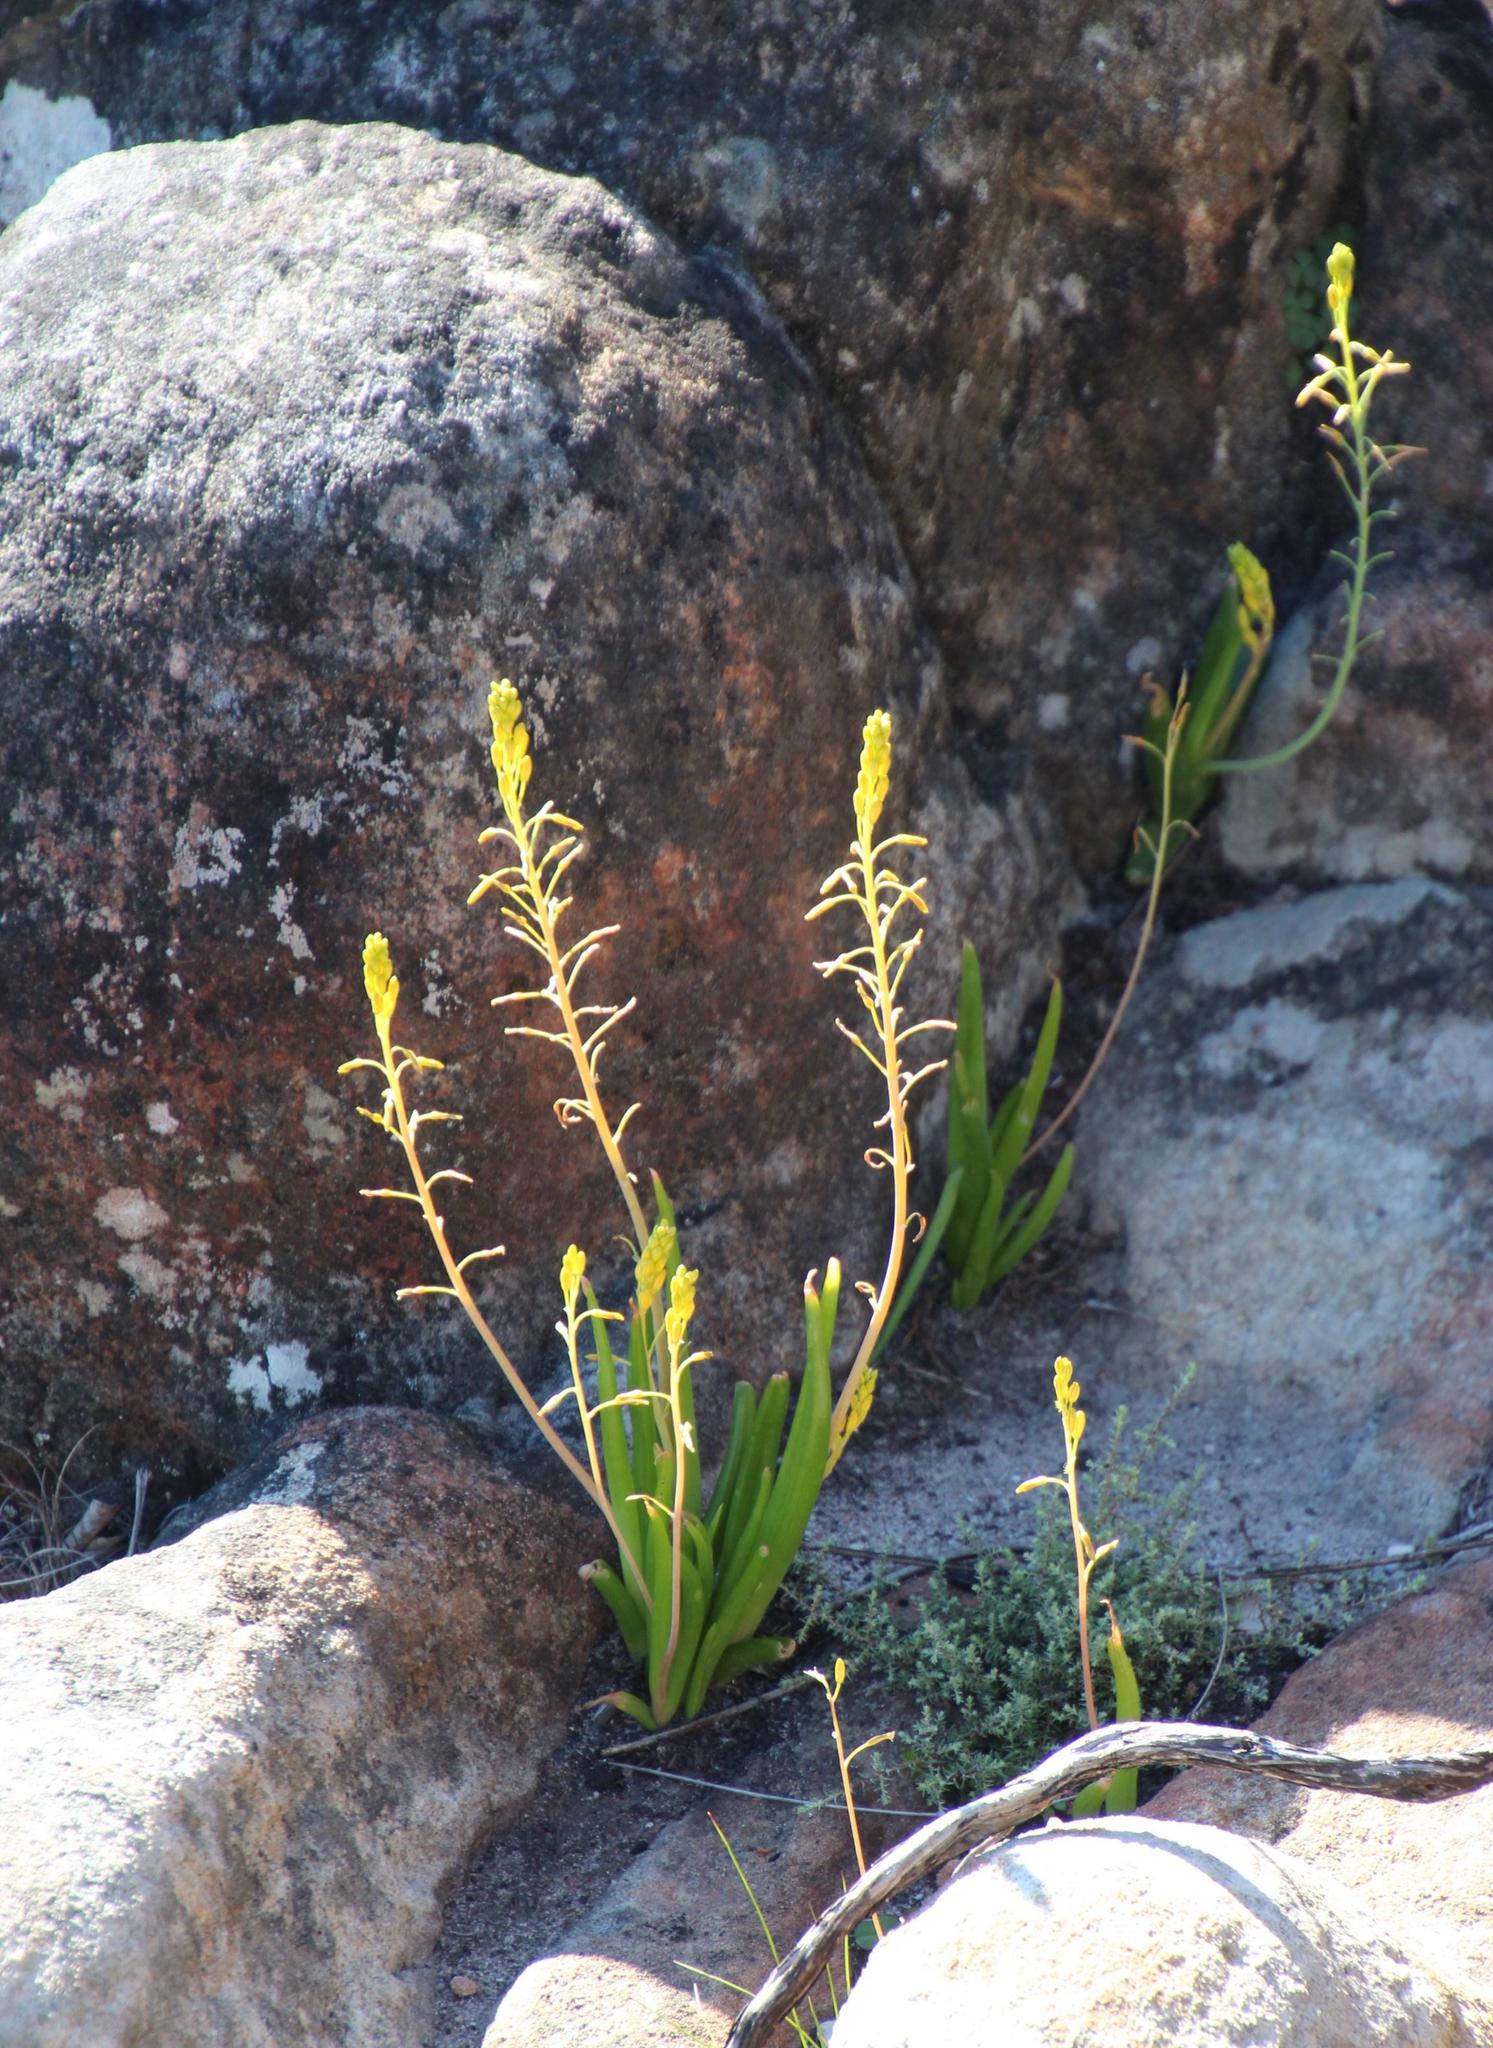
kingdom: Plantae
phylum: Tracheophyta
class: Liliopsida
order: Asparagales
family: Asphodelaceae
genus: Bulbine
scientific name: Bulbine praemorsa
